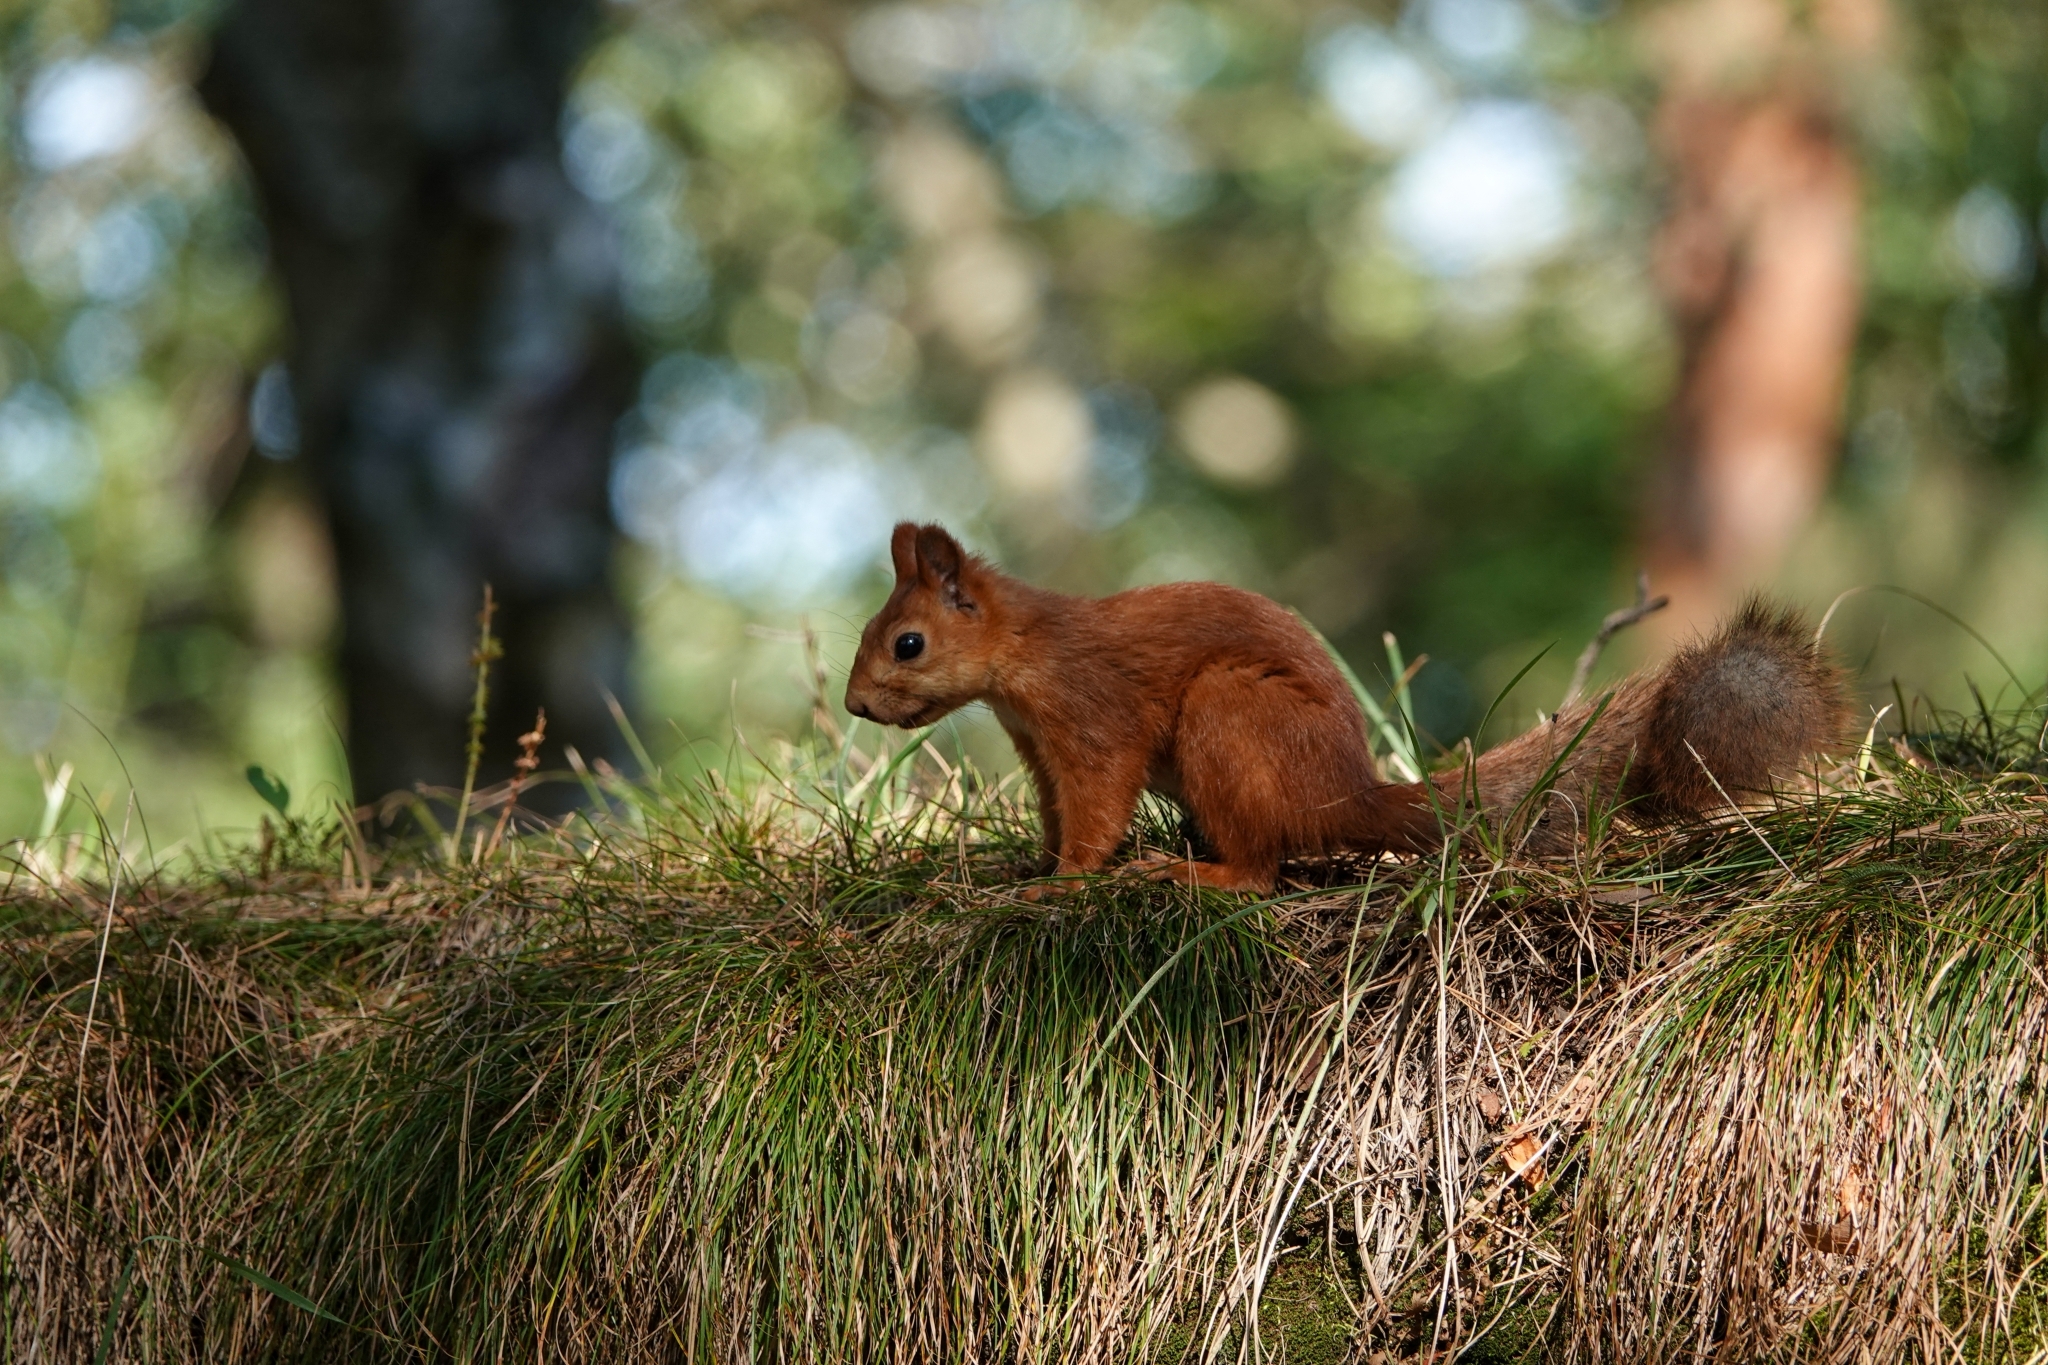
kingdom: Animalia
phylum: Chordata
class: Mammalia
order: Rodentia
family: Sciuridae
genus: Sciurus
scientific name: Sciurus vulgaris
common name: Eurasian red squirrel
